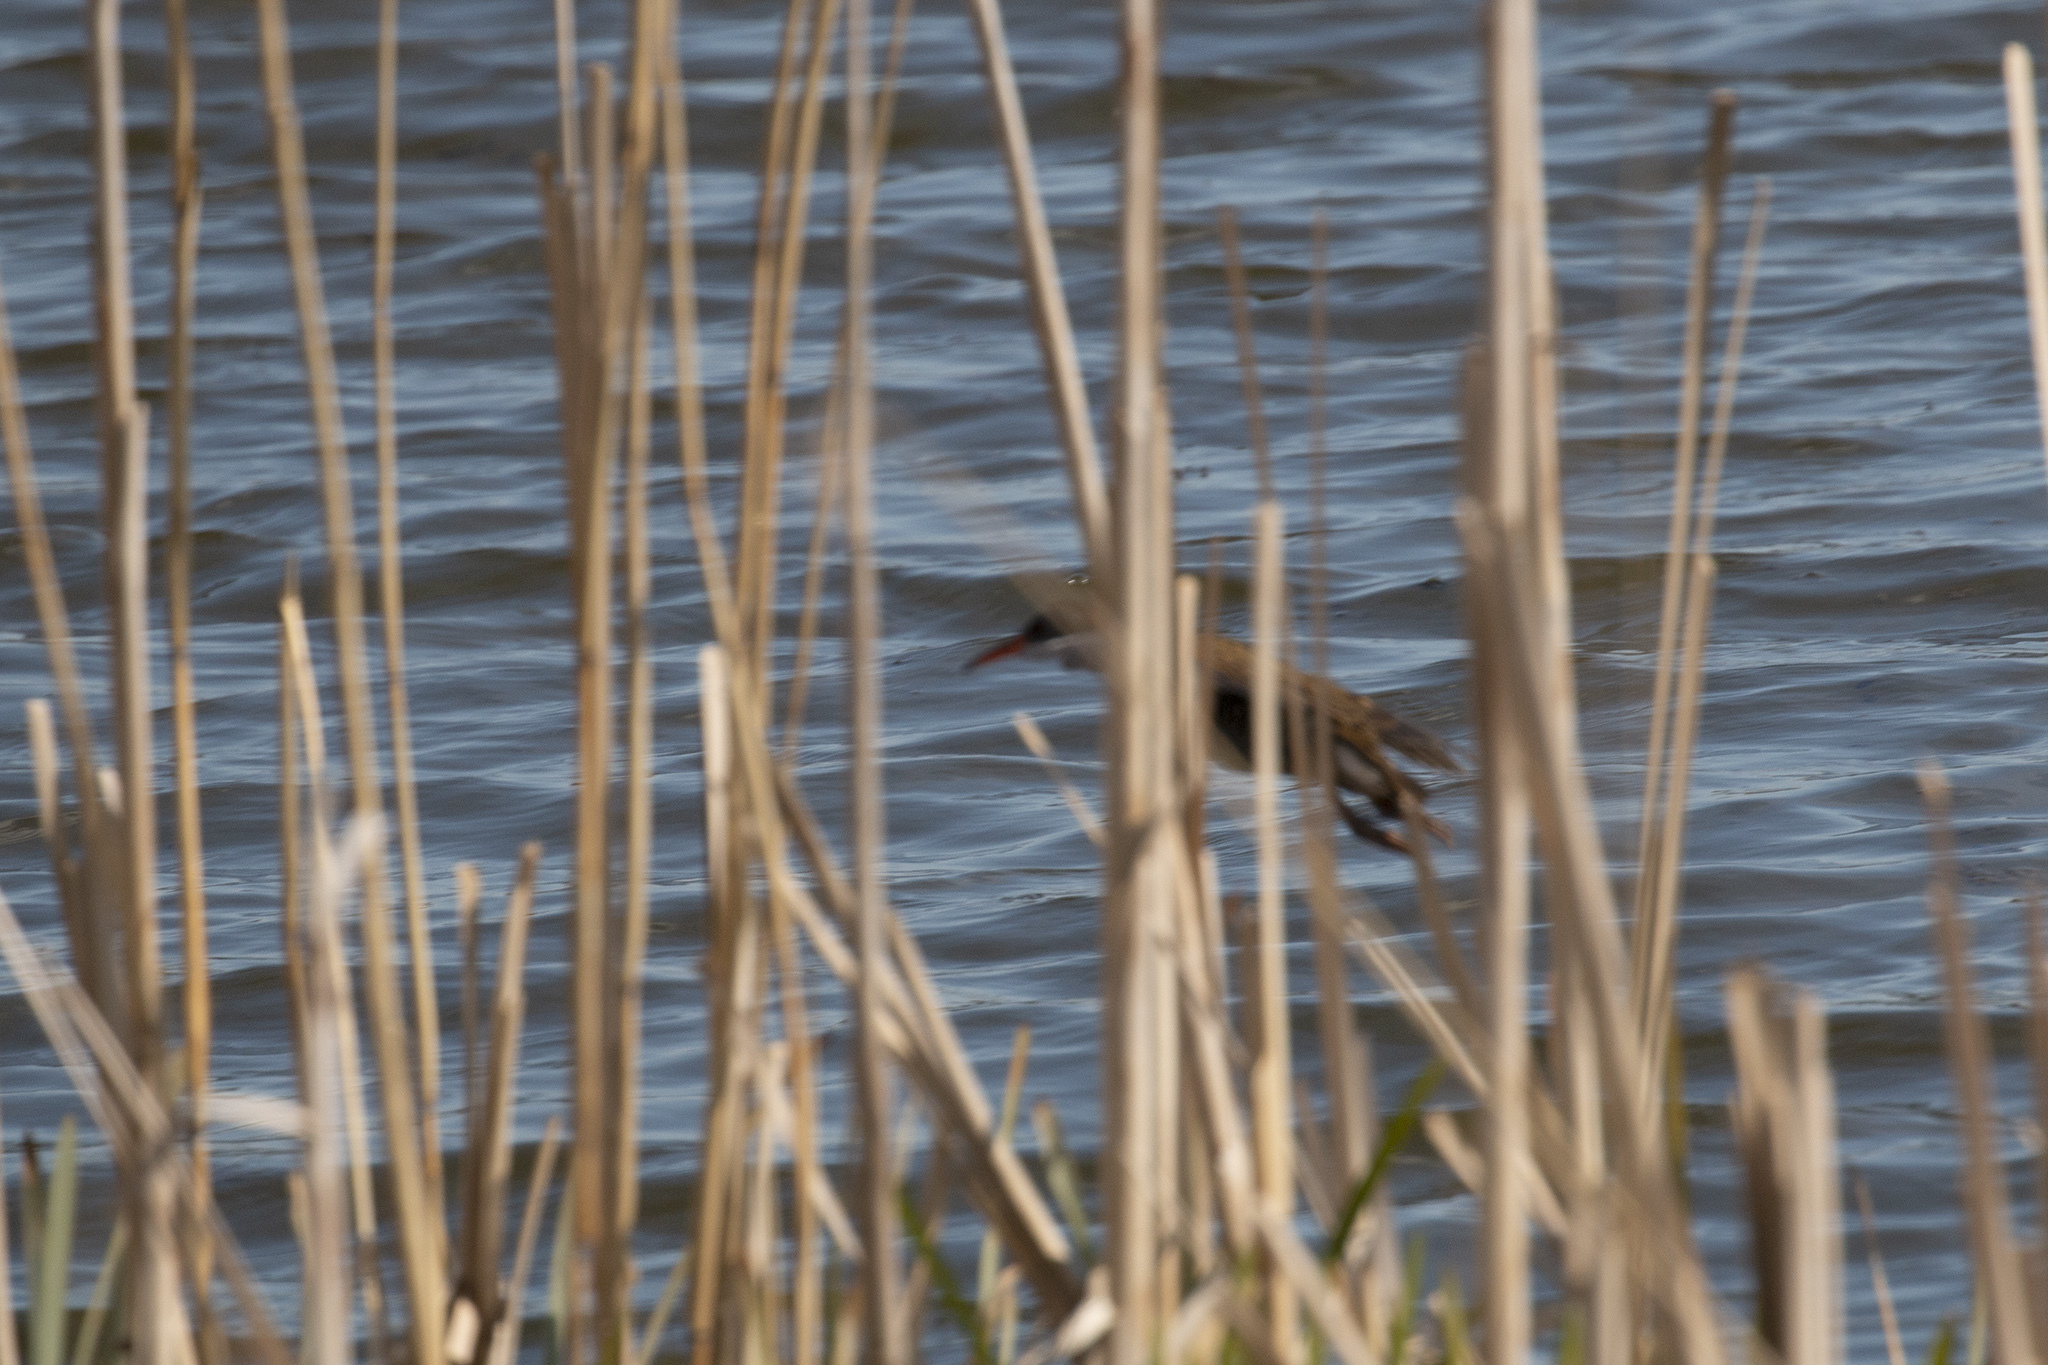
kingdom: Animalia
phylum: Chordata
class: Aves
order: Gruiformes
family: Rallidae
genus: Rallus
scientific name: Rallus aquaticus
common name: Water rail
